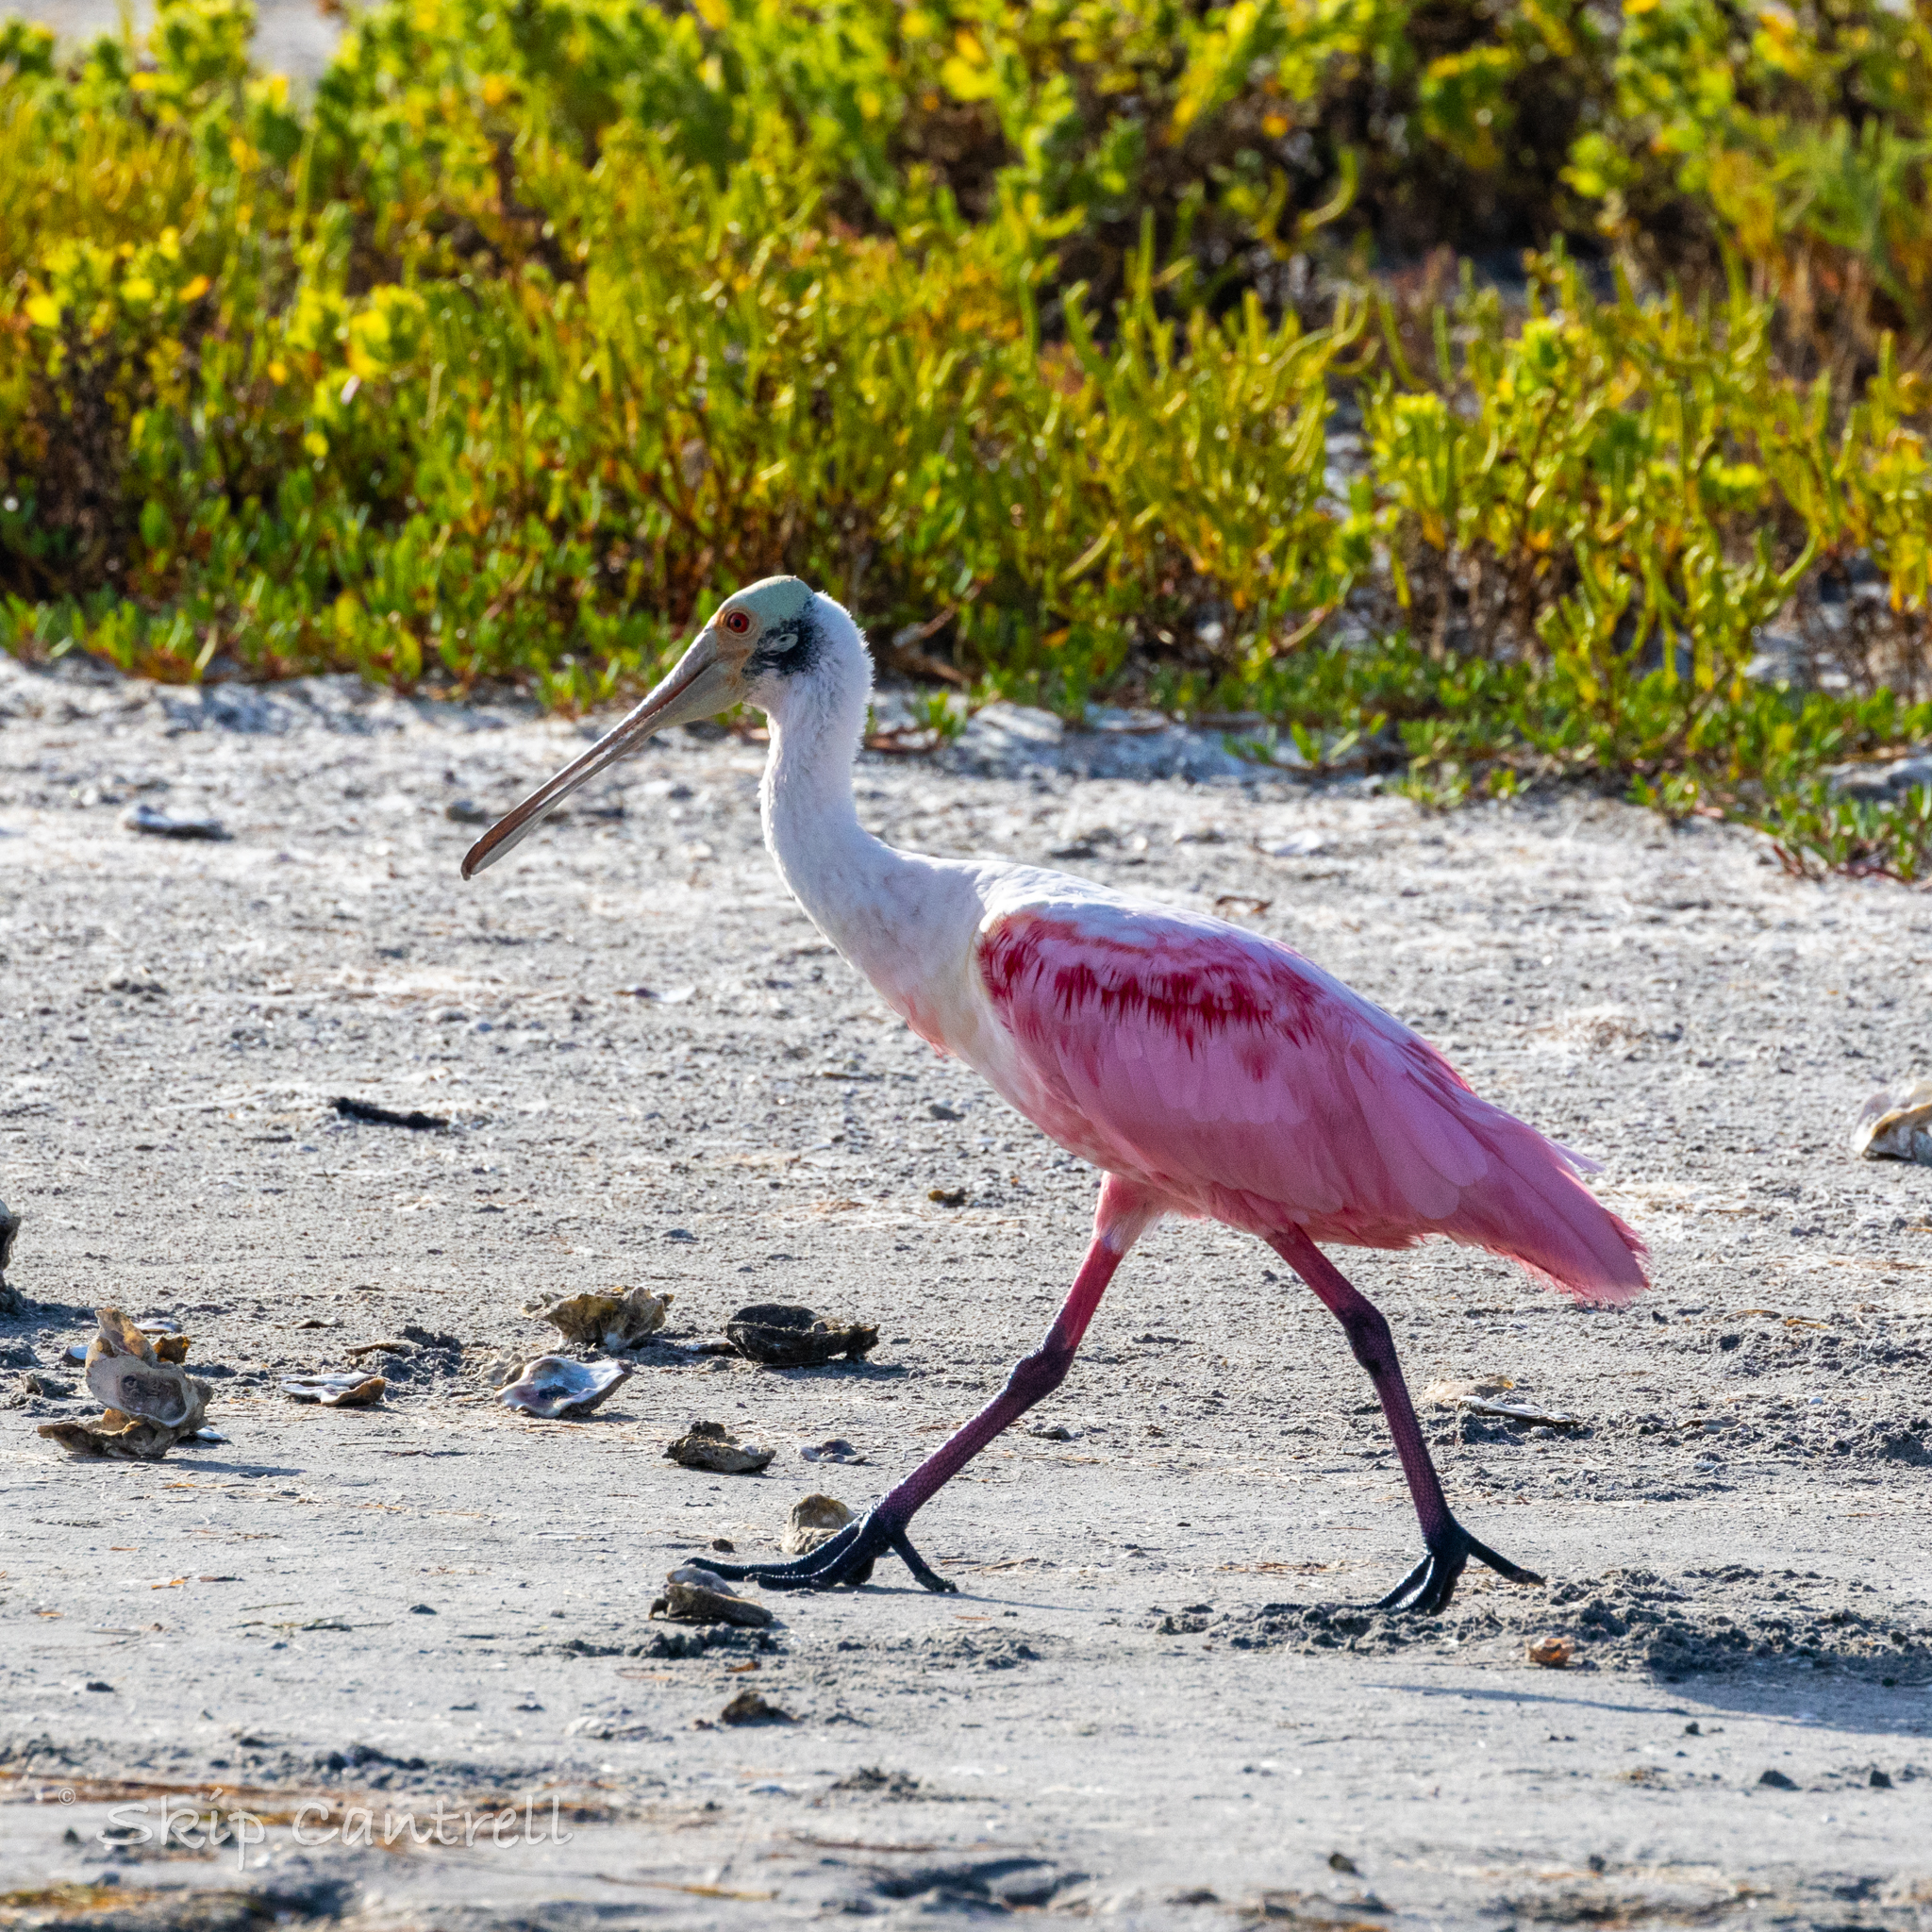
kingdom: Animalia
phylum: Chordata
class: Aves
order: Pelecaniformes
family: Threskiornithidae
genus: Platalea
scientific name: Platalea ajaja
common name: Roseate spoonbill
